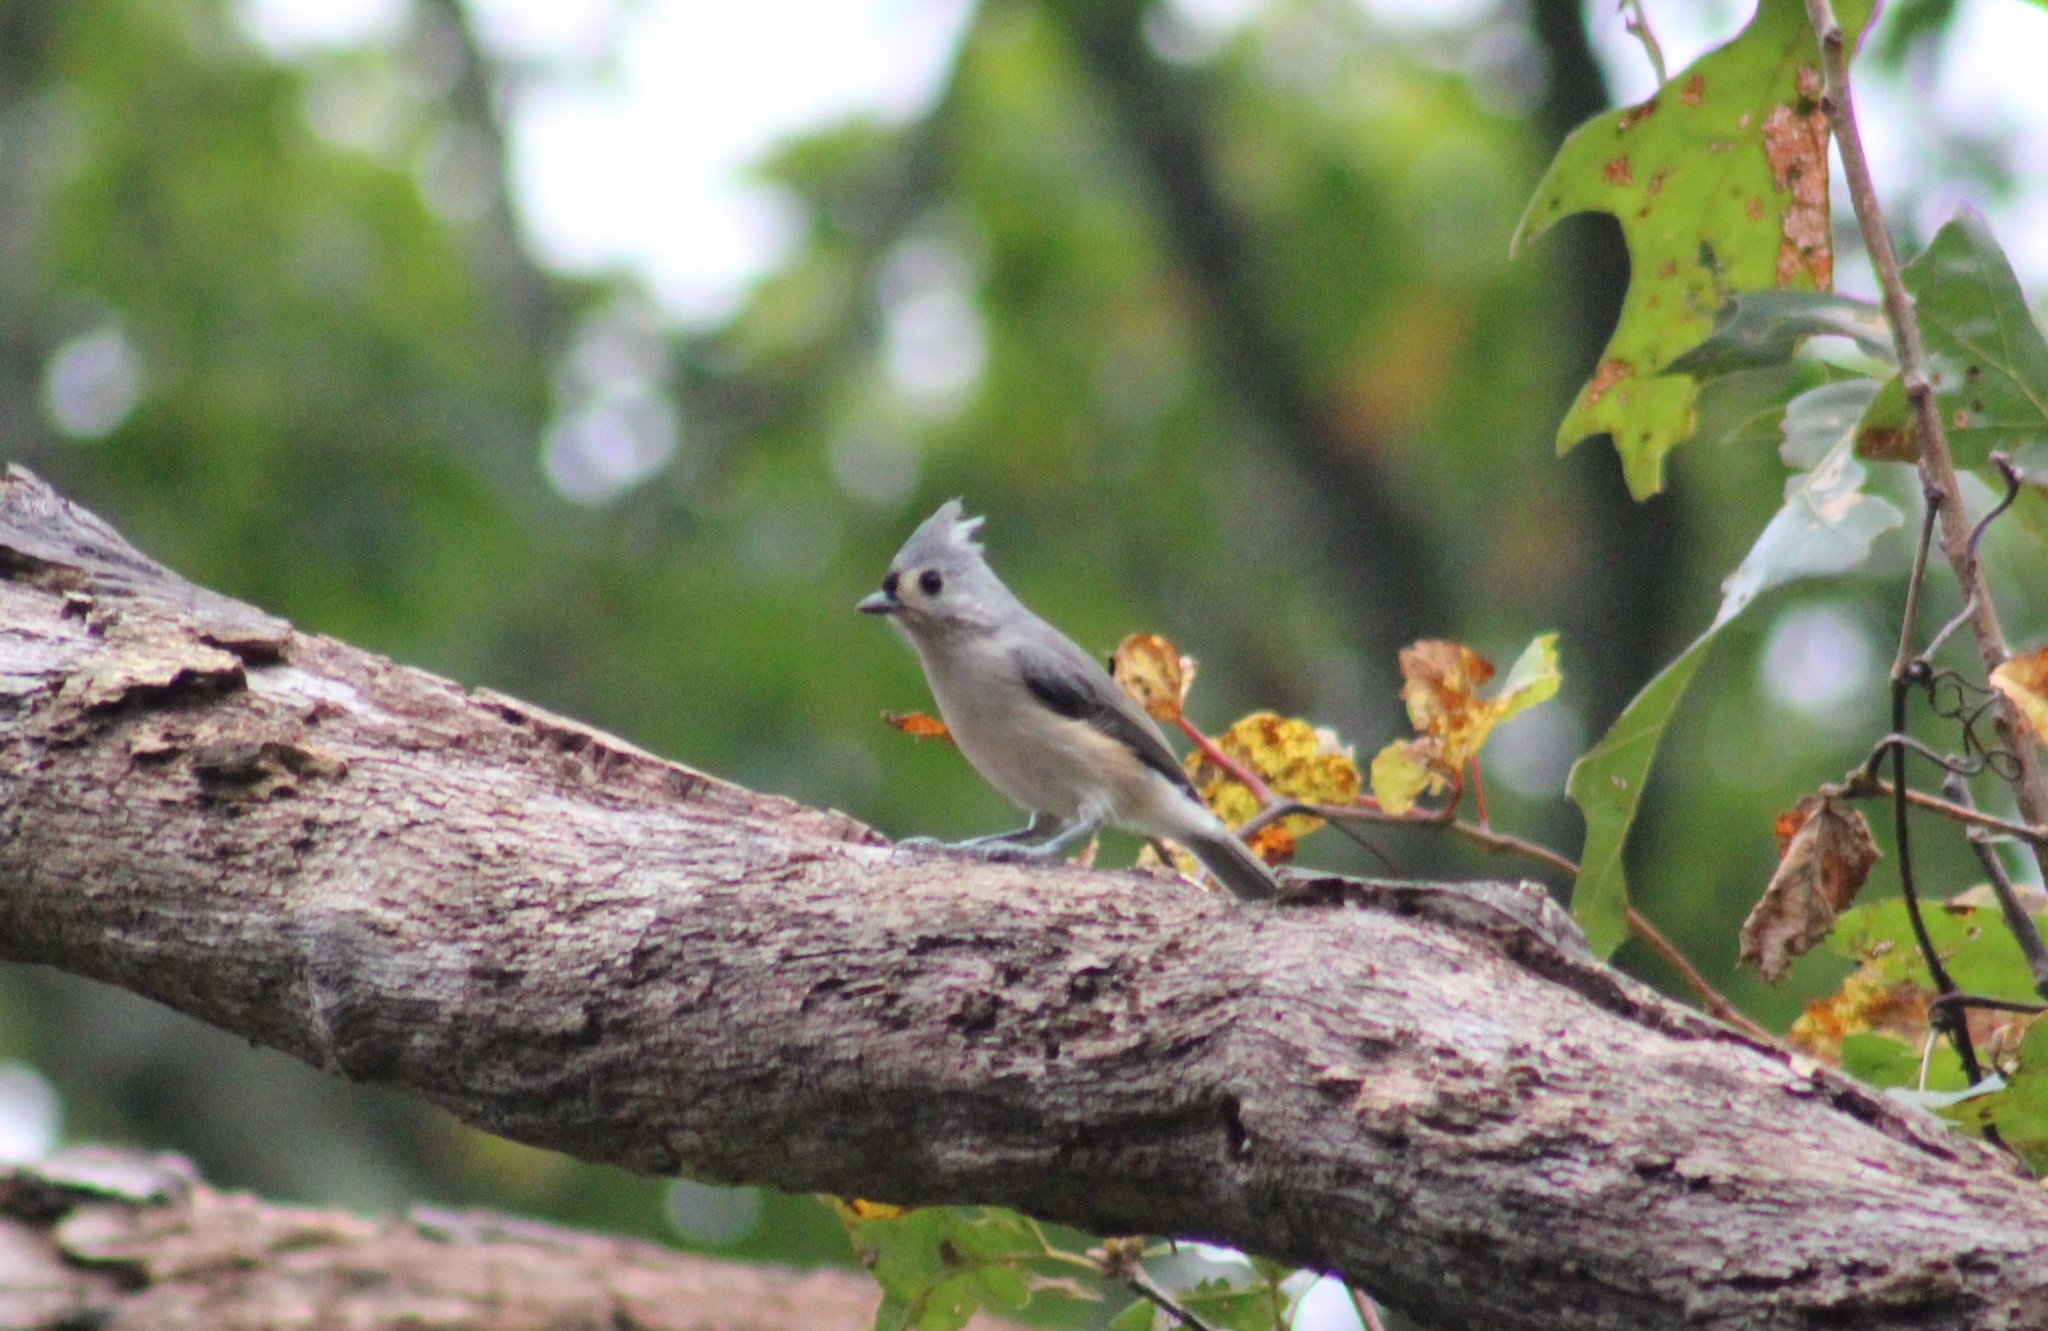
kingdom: Animalia
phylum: Chordata
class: Aves
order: Passeriformes
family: Paridae
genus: Baeolophus
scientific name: Baeolophus bicolor
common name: Tufted titmouse
